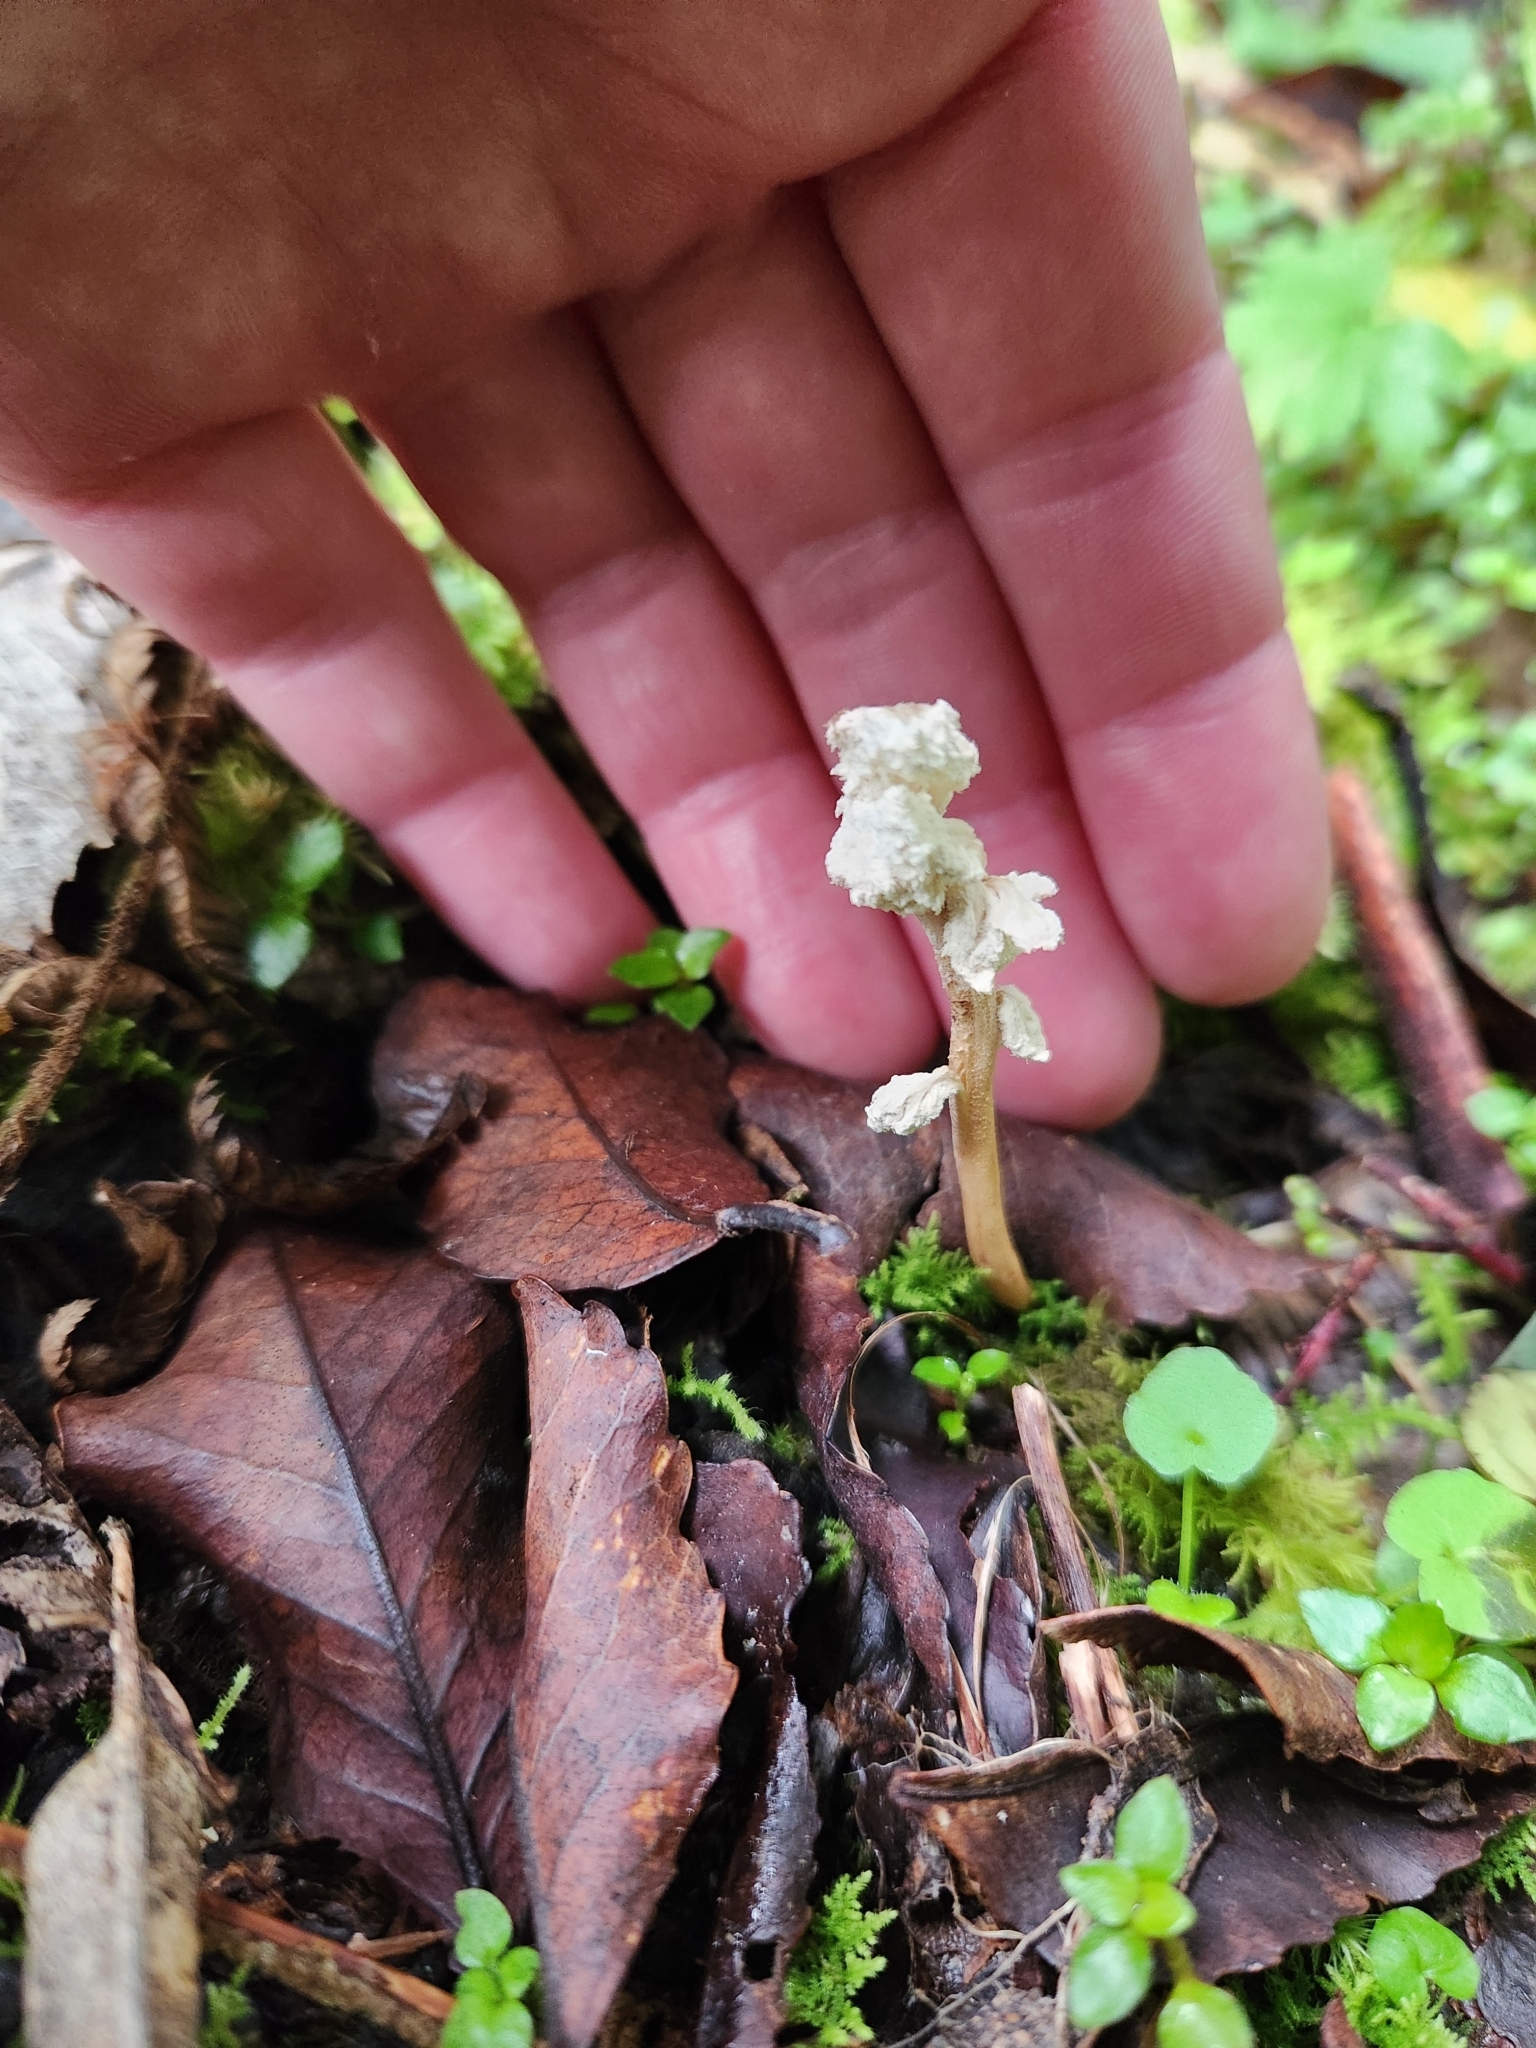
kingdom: Fungi
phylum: Ascomycota
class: Sordariomycetes
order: Hypocreales
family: Cordycipitaceae
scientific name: Cordycipitaceae
